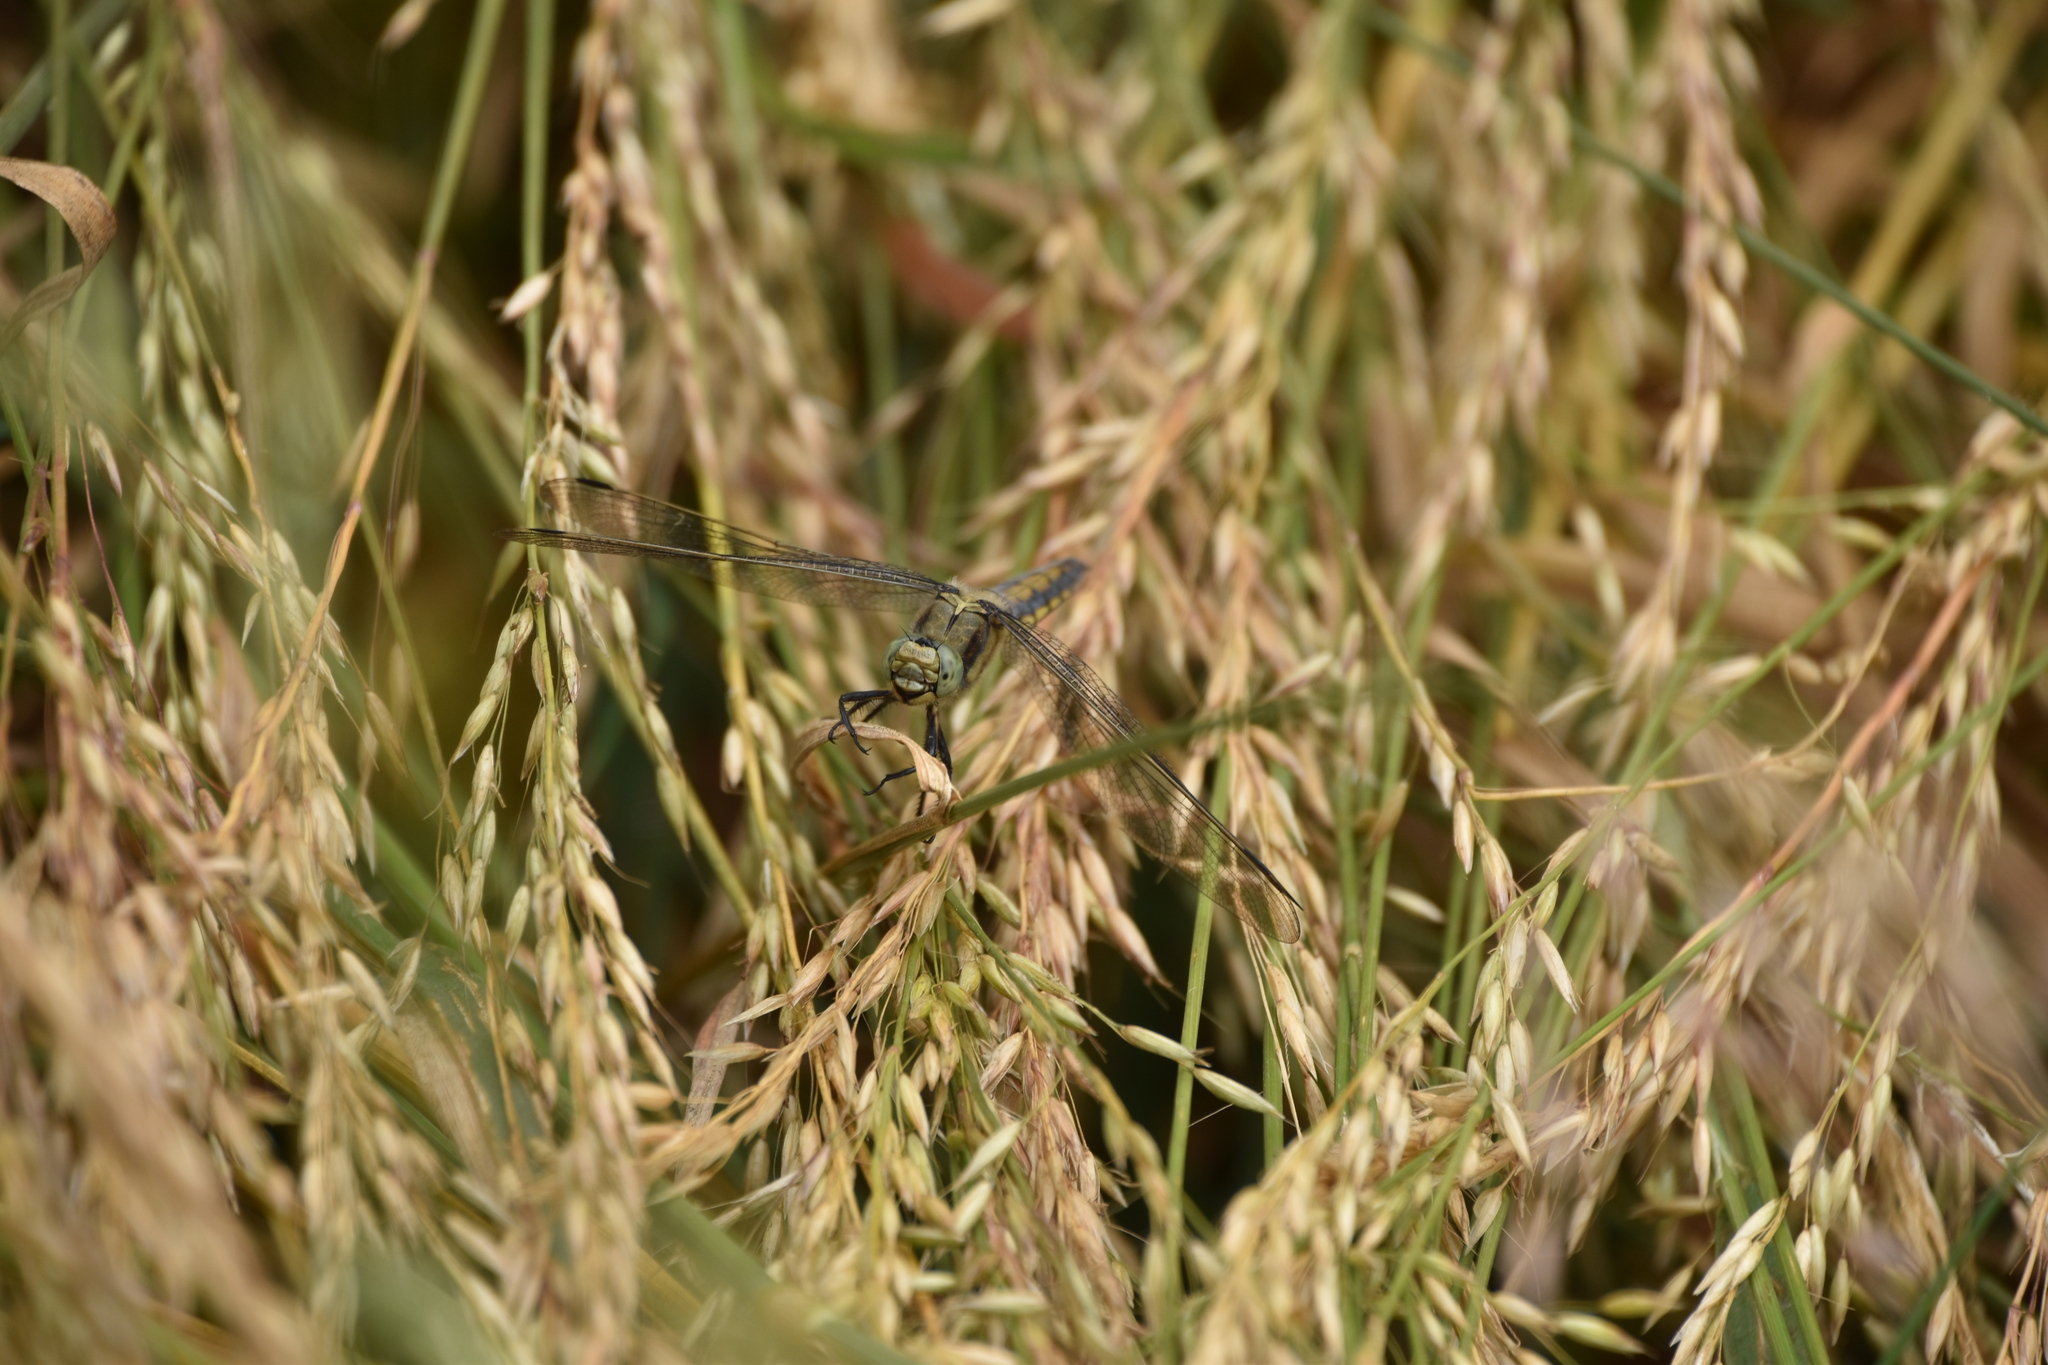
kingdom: Animalia
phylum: Arthropoda
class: Insecta
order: Odonata
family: Libellulidae
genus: Orthetrum
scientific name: Orthetrum cancellatum
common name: Black-tailed skimmer
